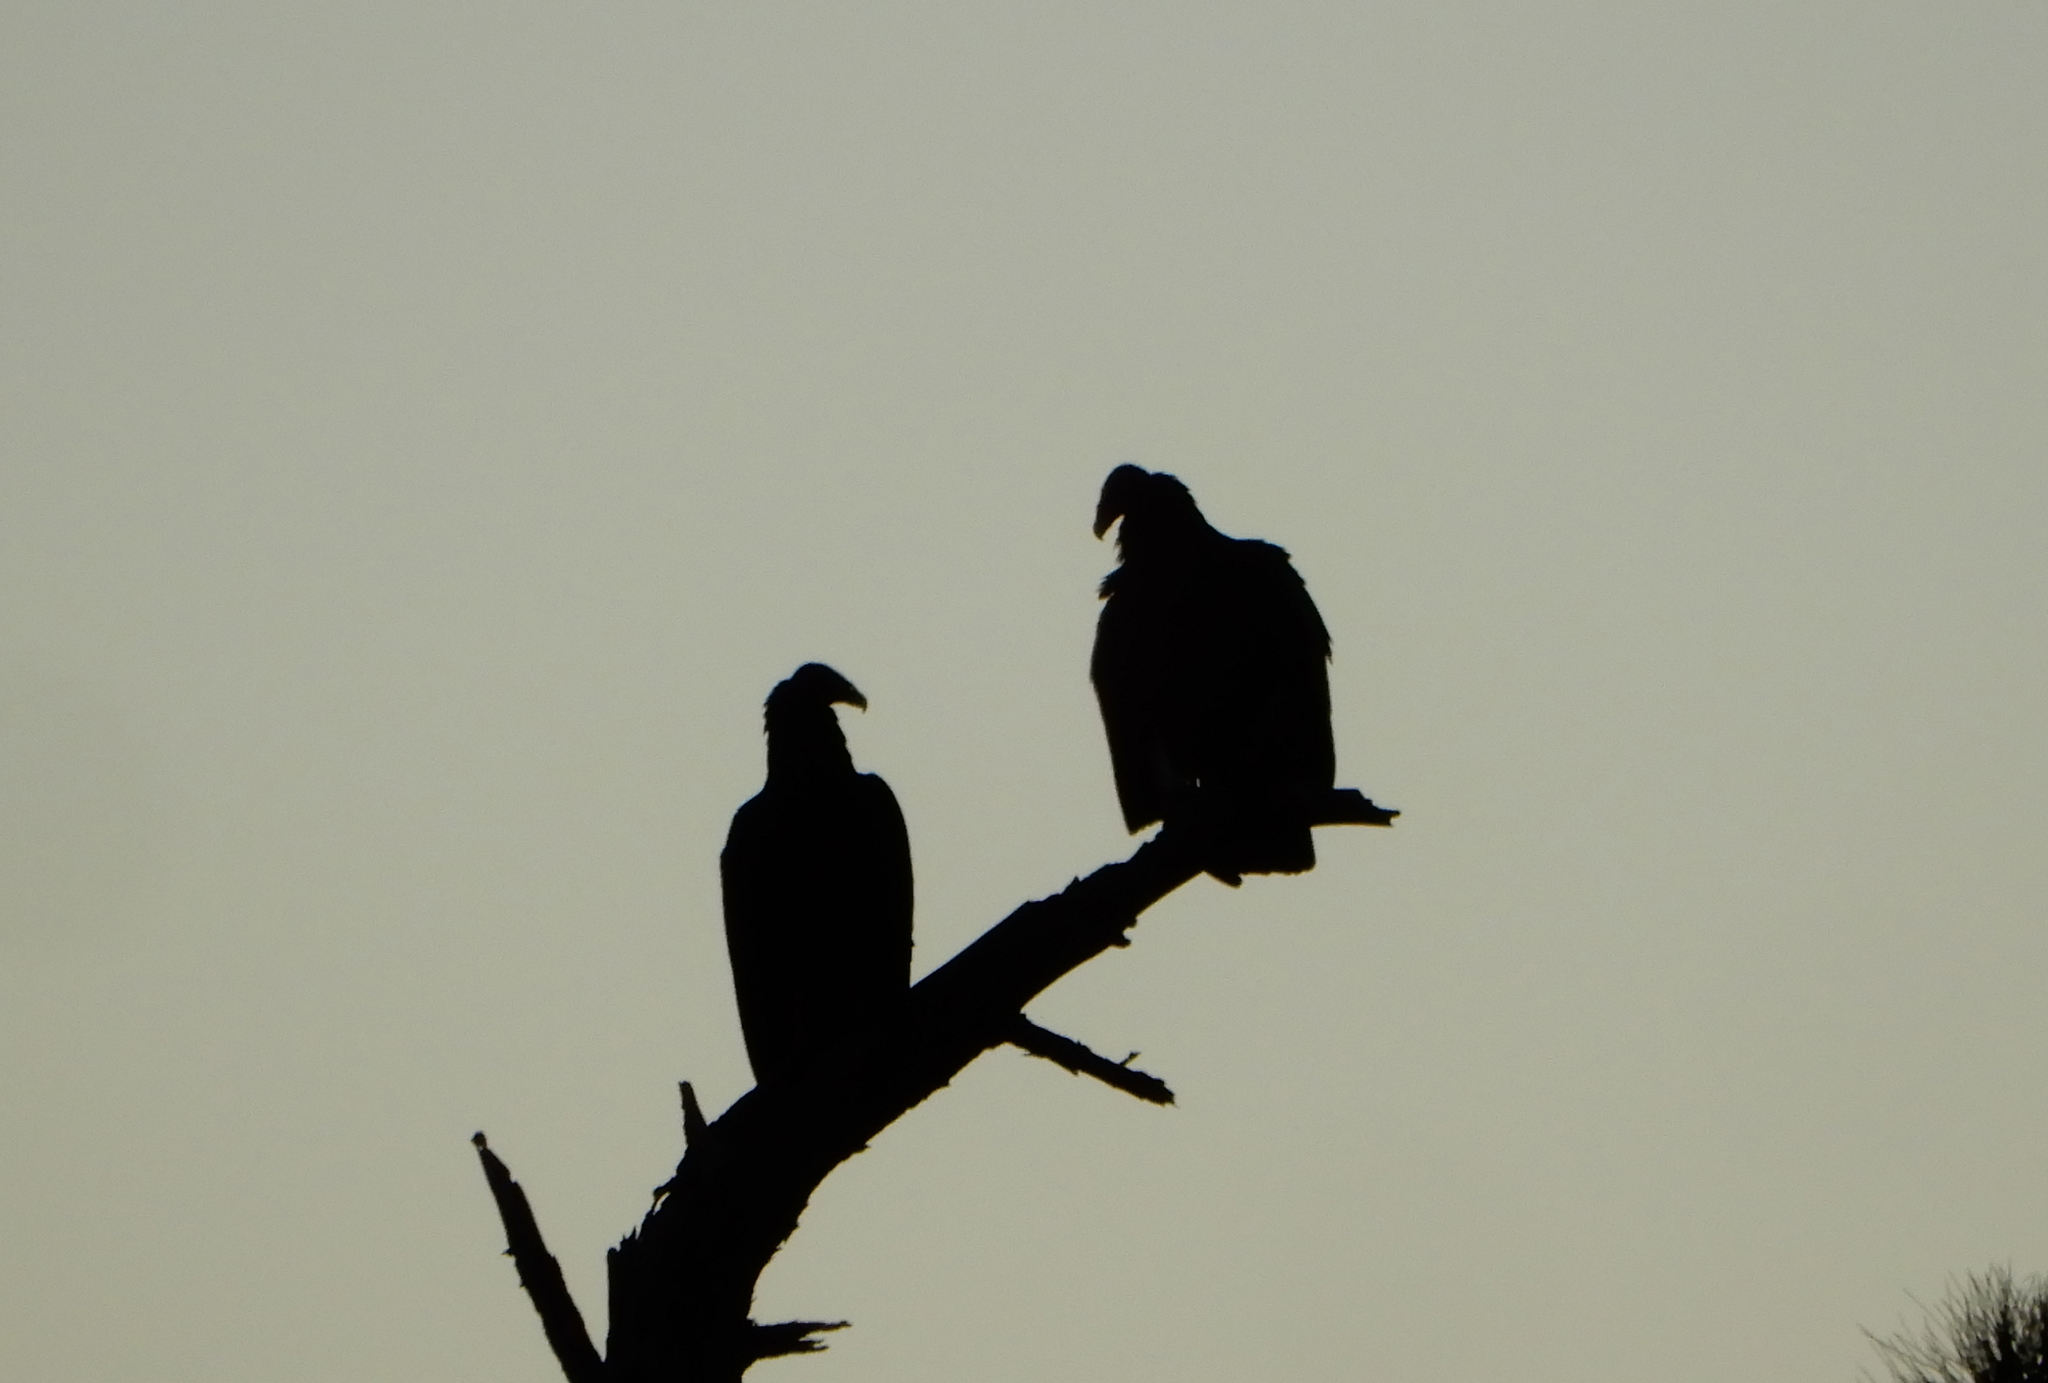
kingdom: Animalia
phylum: Chordata
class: Aves
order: Accipitriformes
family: Cathartidae
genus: Cathartes
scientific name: Cathartes aura
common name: Turkey vulture
